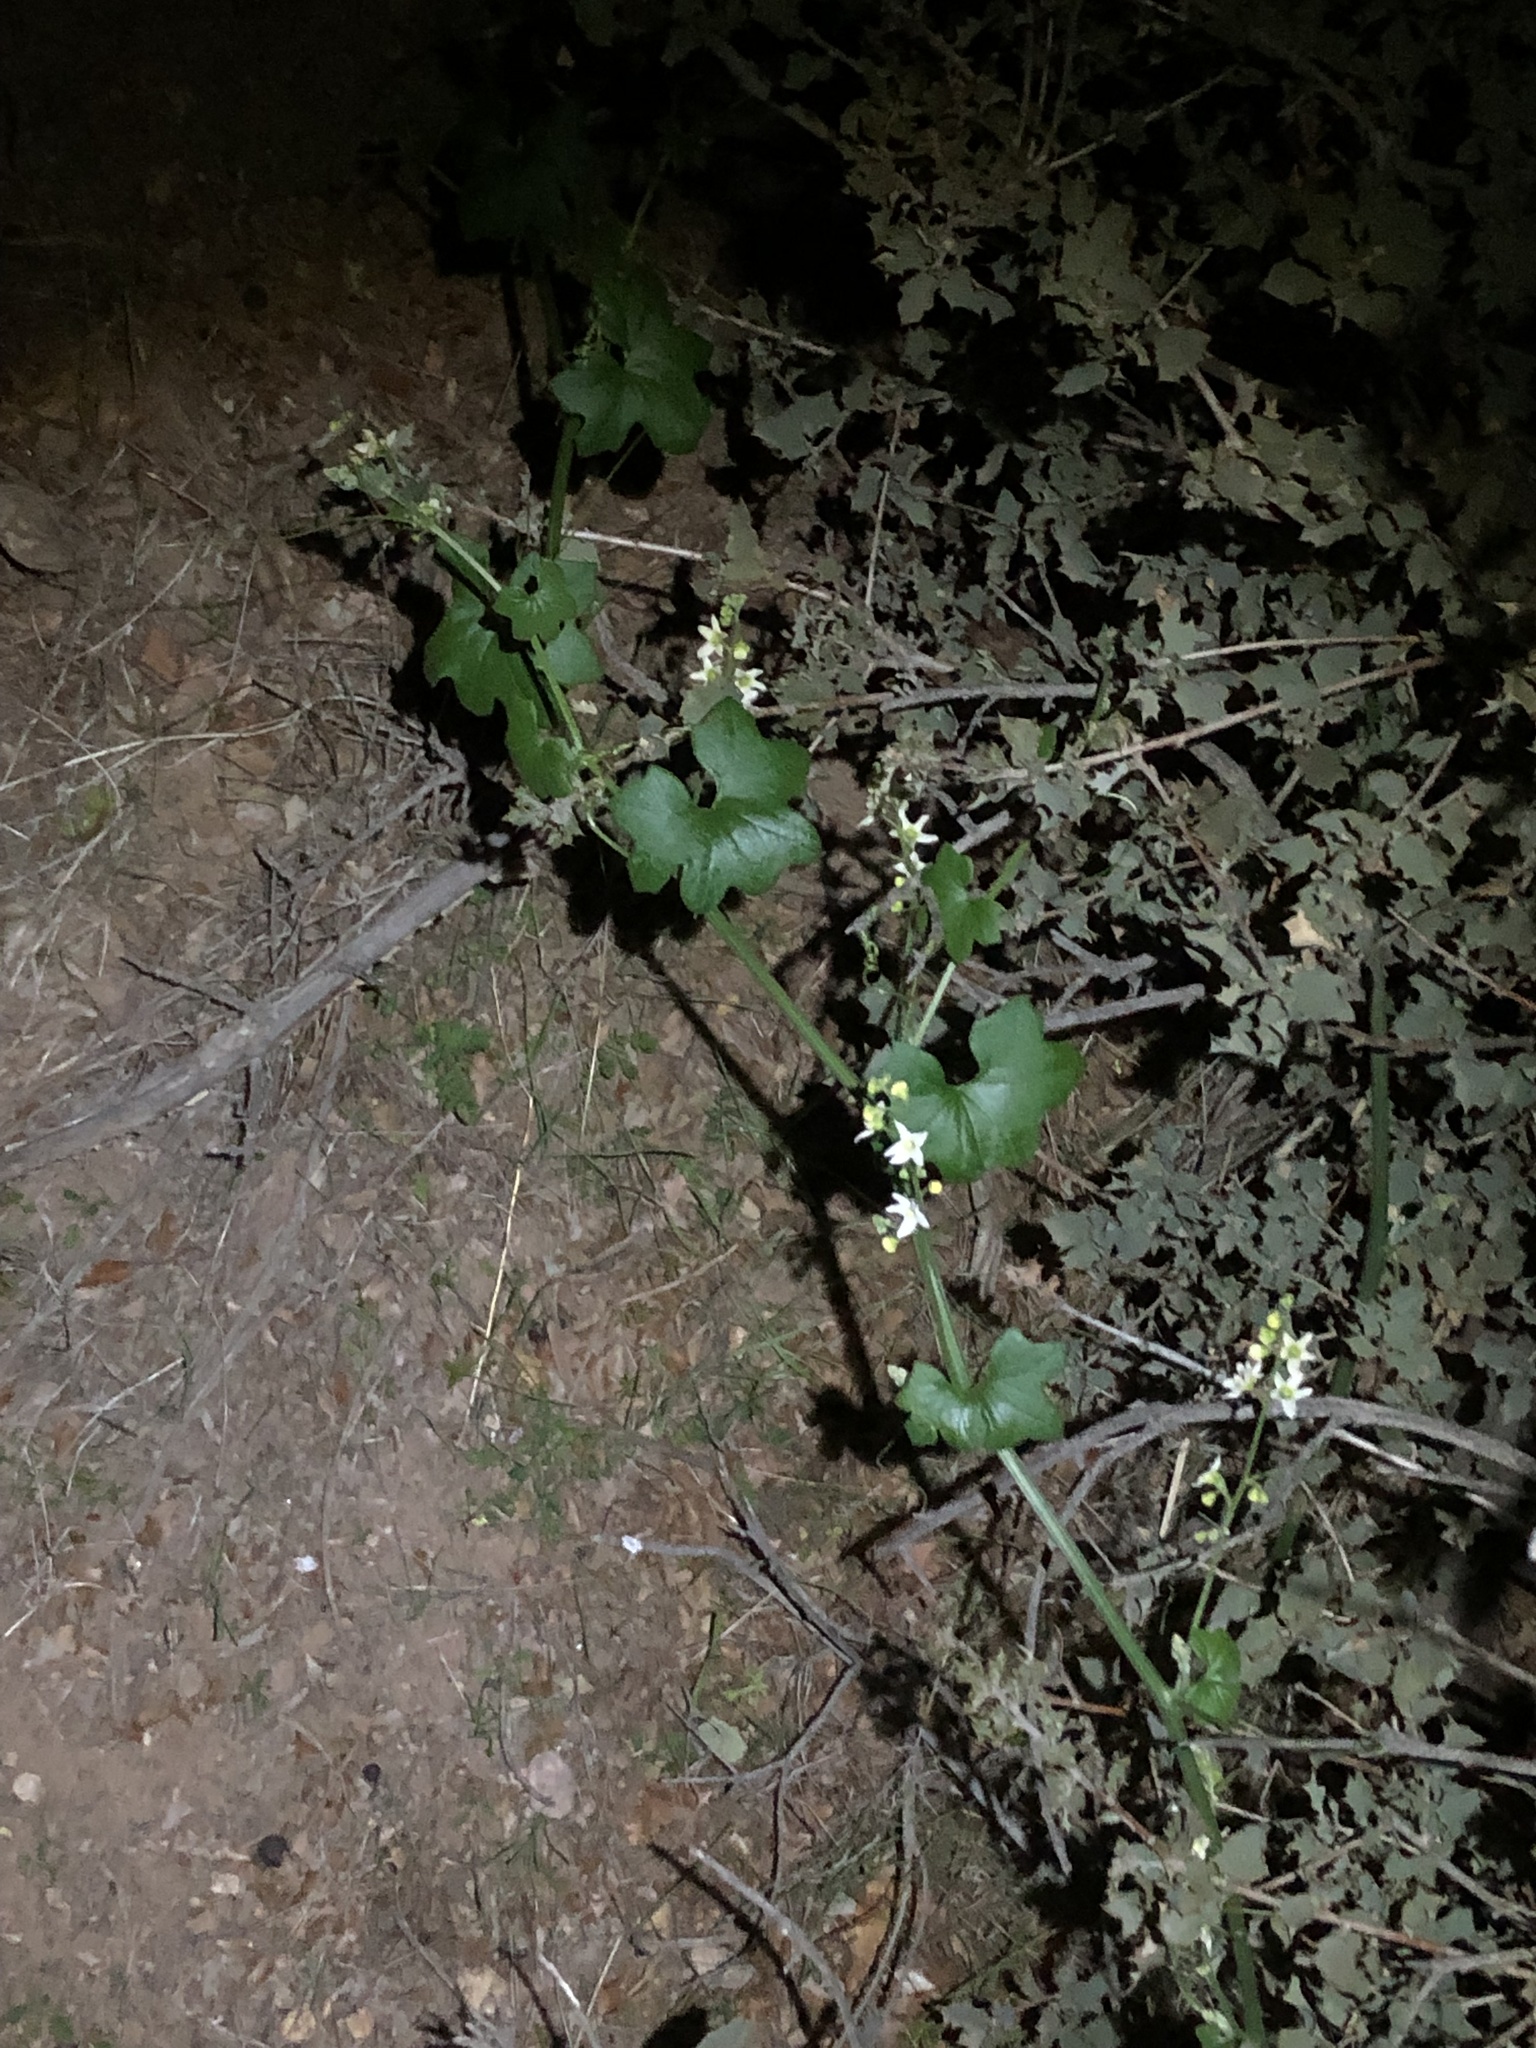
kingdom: Plantae
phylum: Tracheophyta
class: Magnoliopsida
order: Cucurbitales
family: Cucurbitaceae
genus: Marah
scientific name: Marah macrocarpa
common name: Cucamonga manroot
